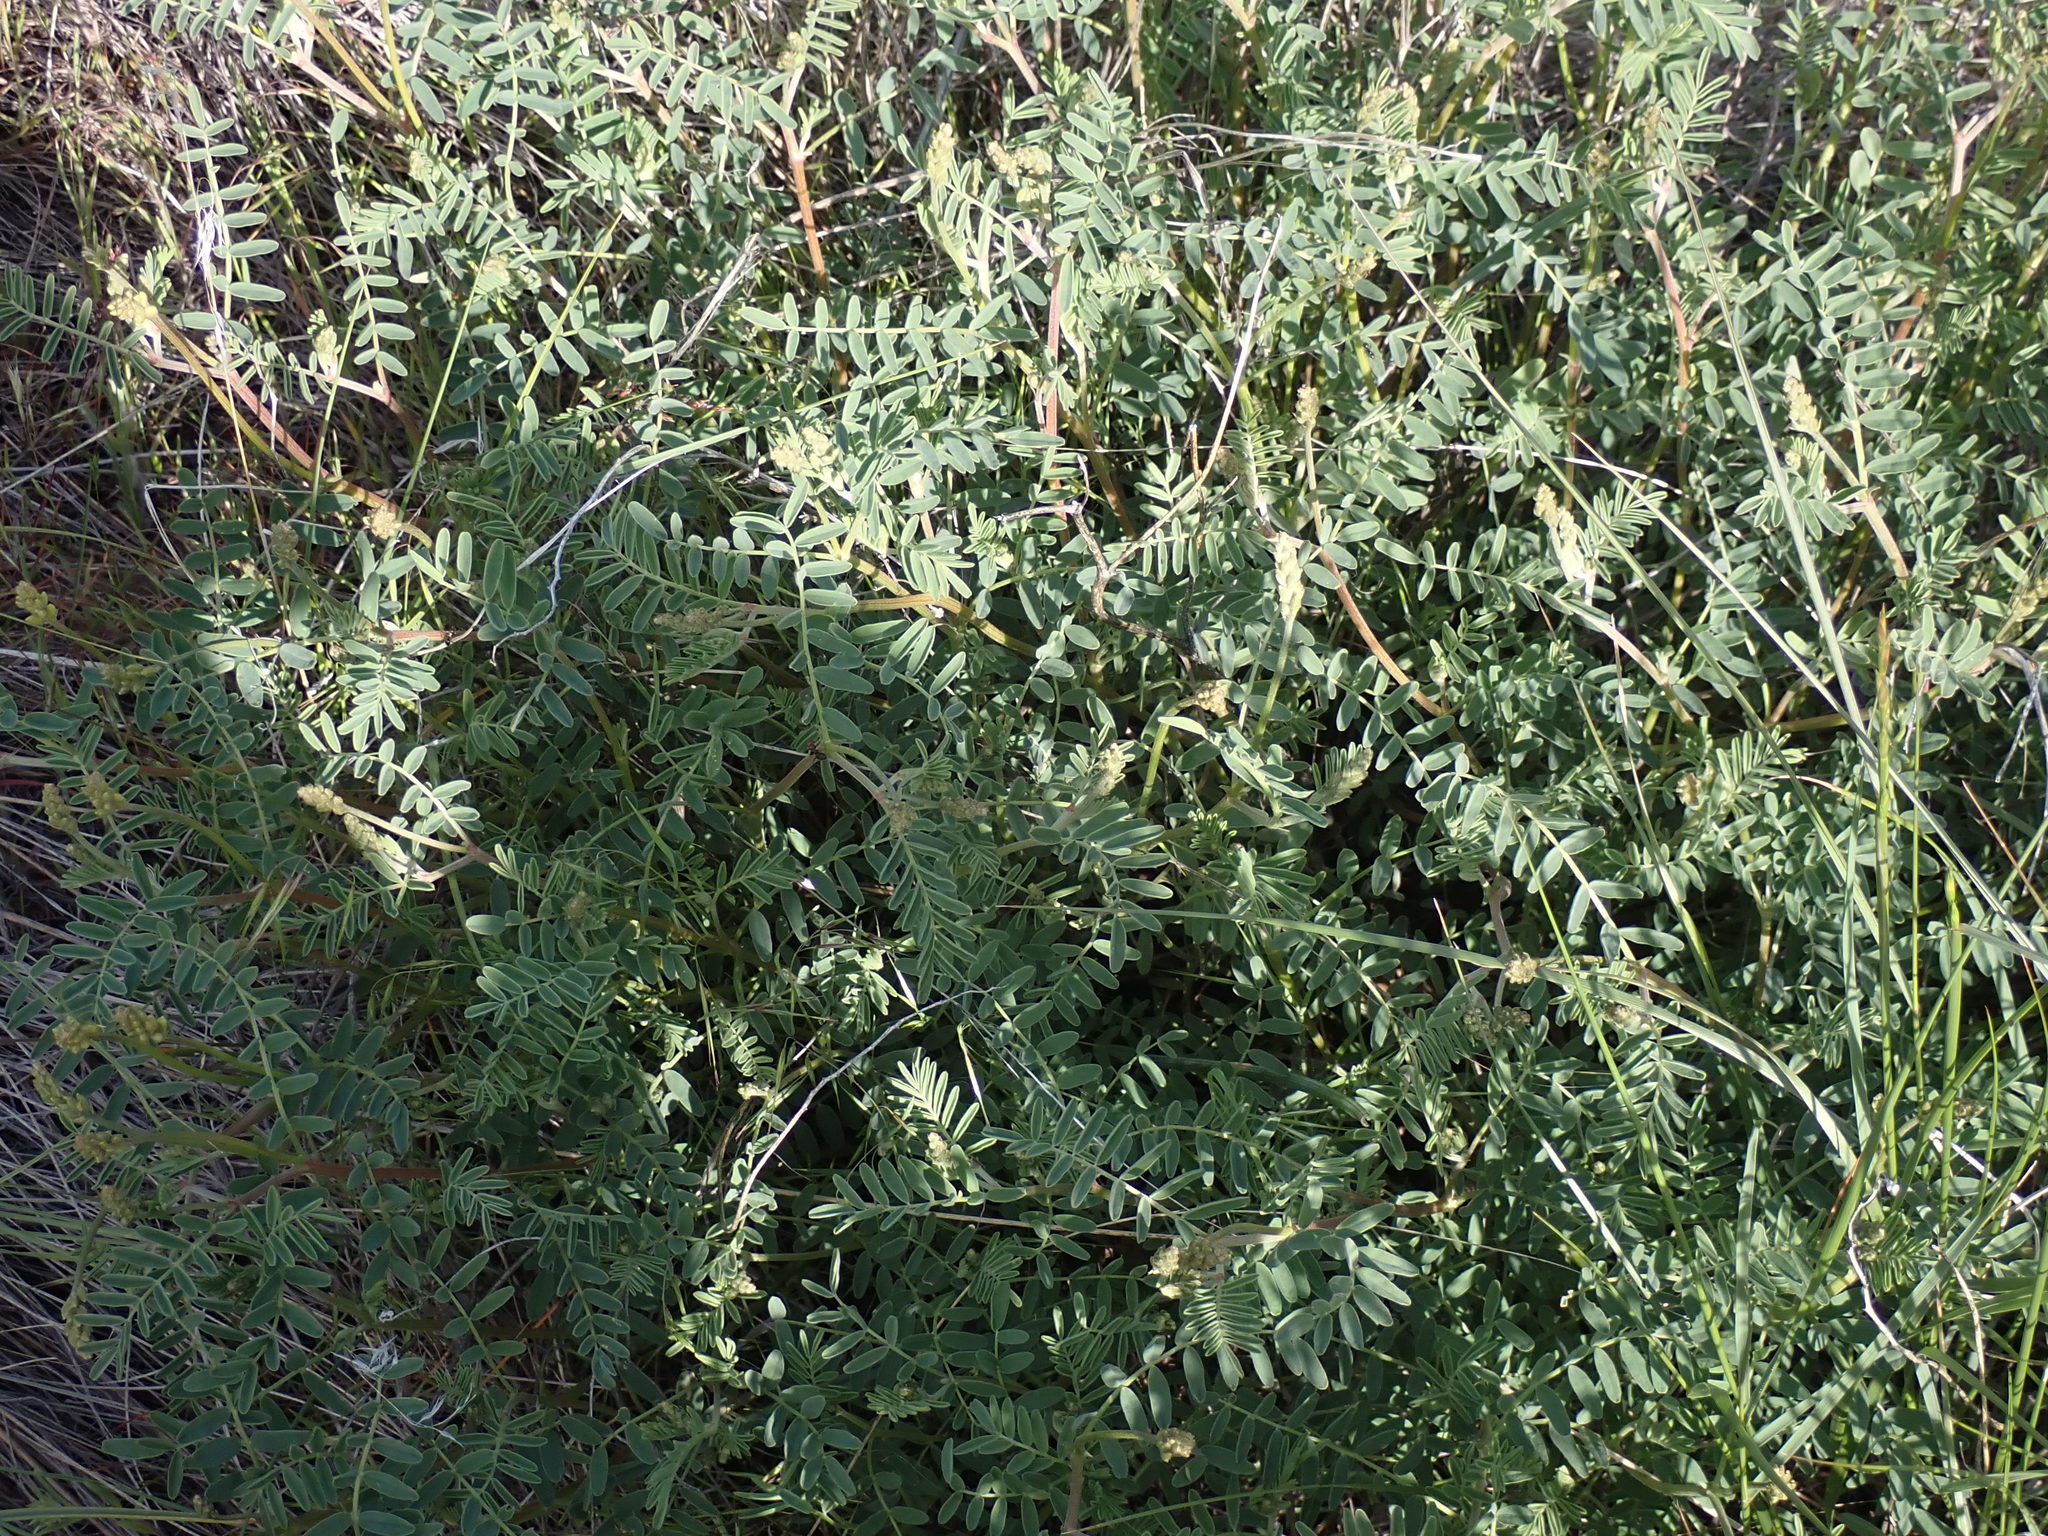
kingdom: Plantae
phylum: Tracheophyta
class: Magnoliopsida
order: Fabales
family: Fabaceae
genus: Astragalus
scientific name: Astragalus collinus
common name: Hill milk-vetch
